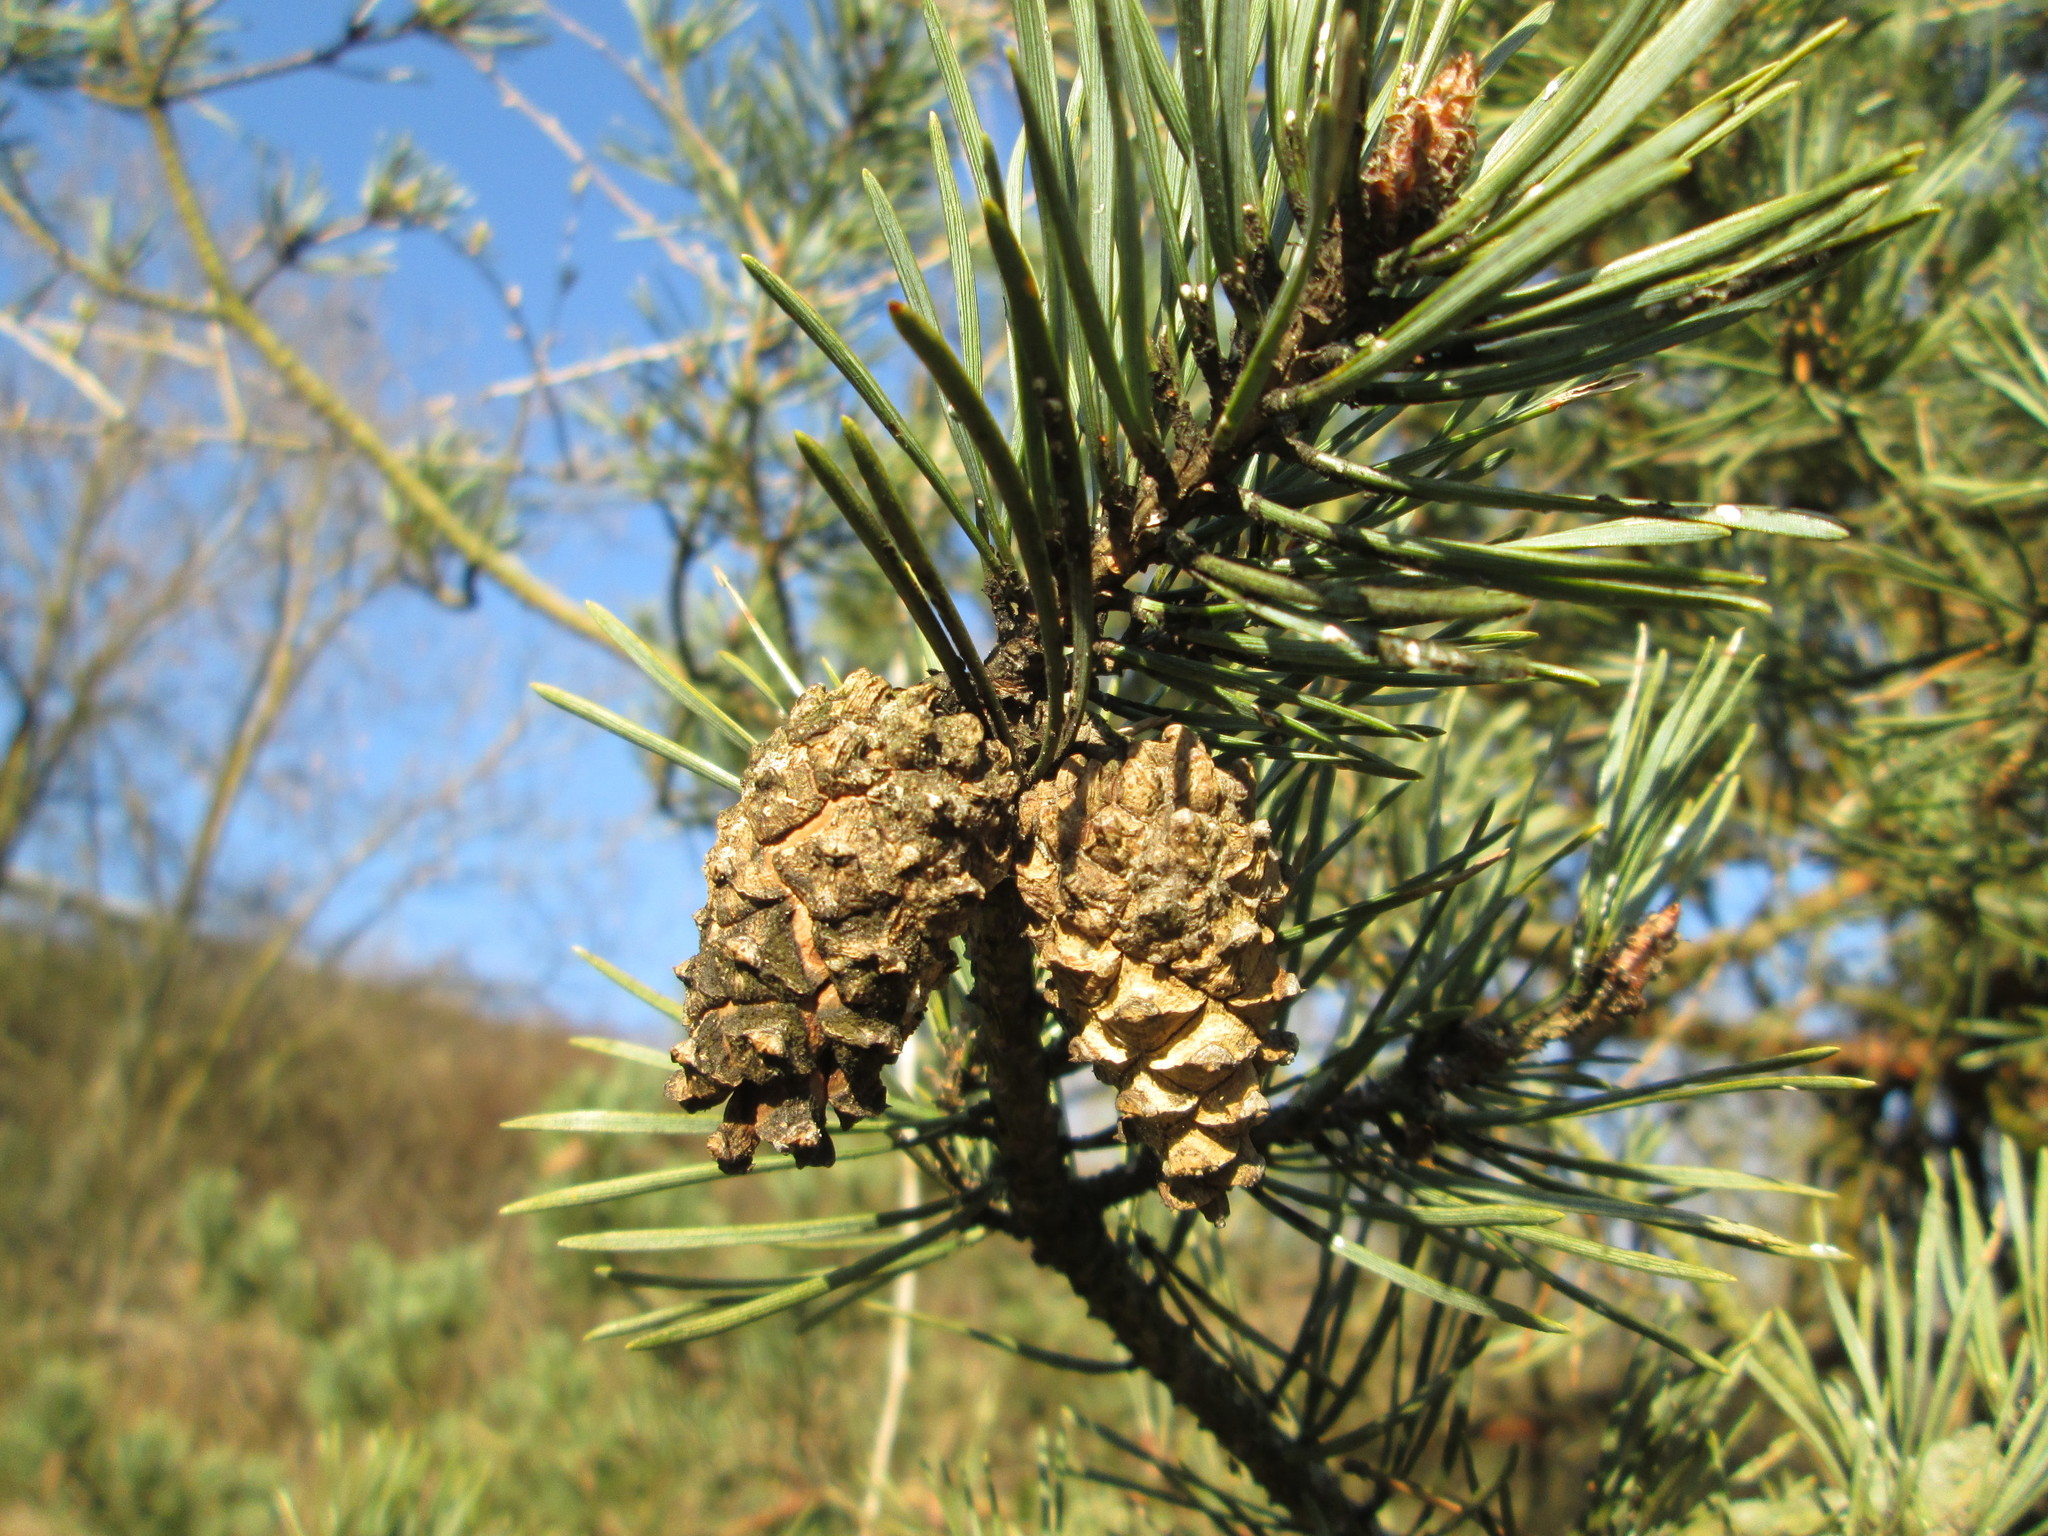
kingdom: Plantae
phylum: Tracheophyta
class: Pinopsida
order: Pinales
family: Pinaceae
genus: Pinus
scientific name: Pinus sylvestris
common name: Scots pine
